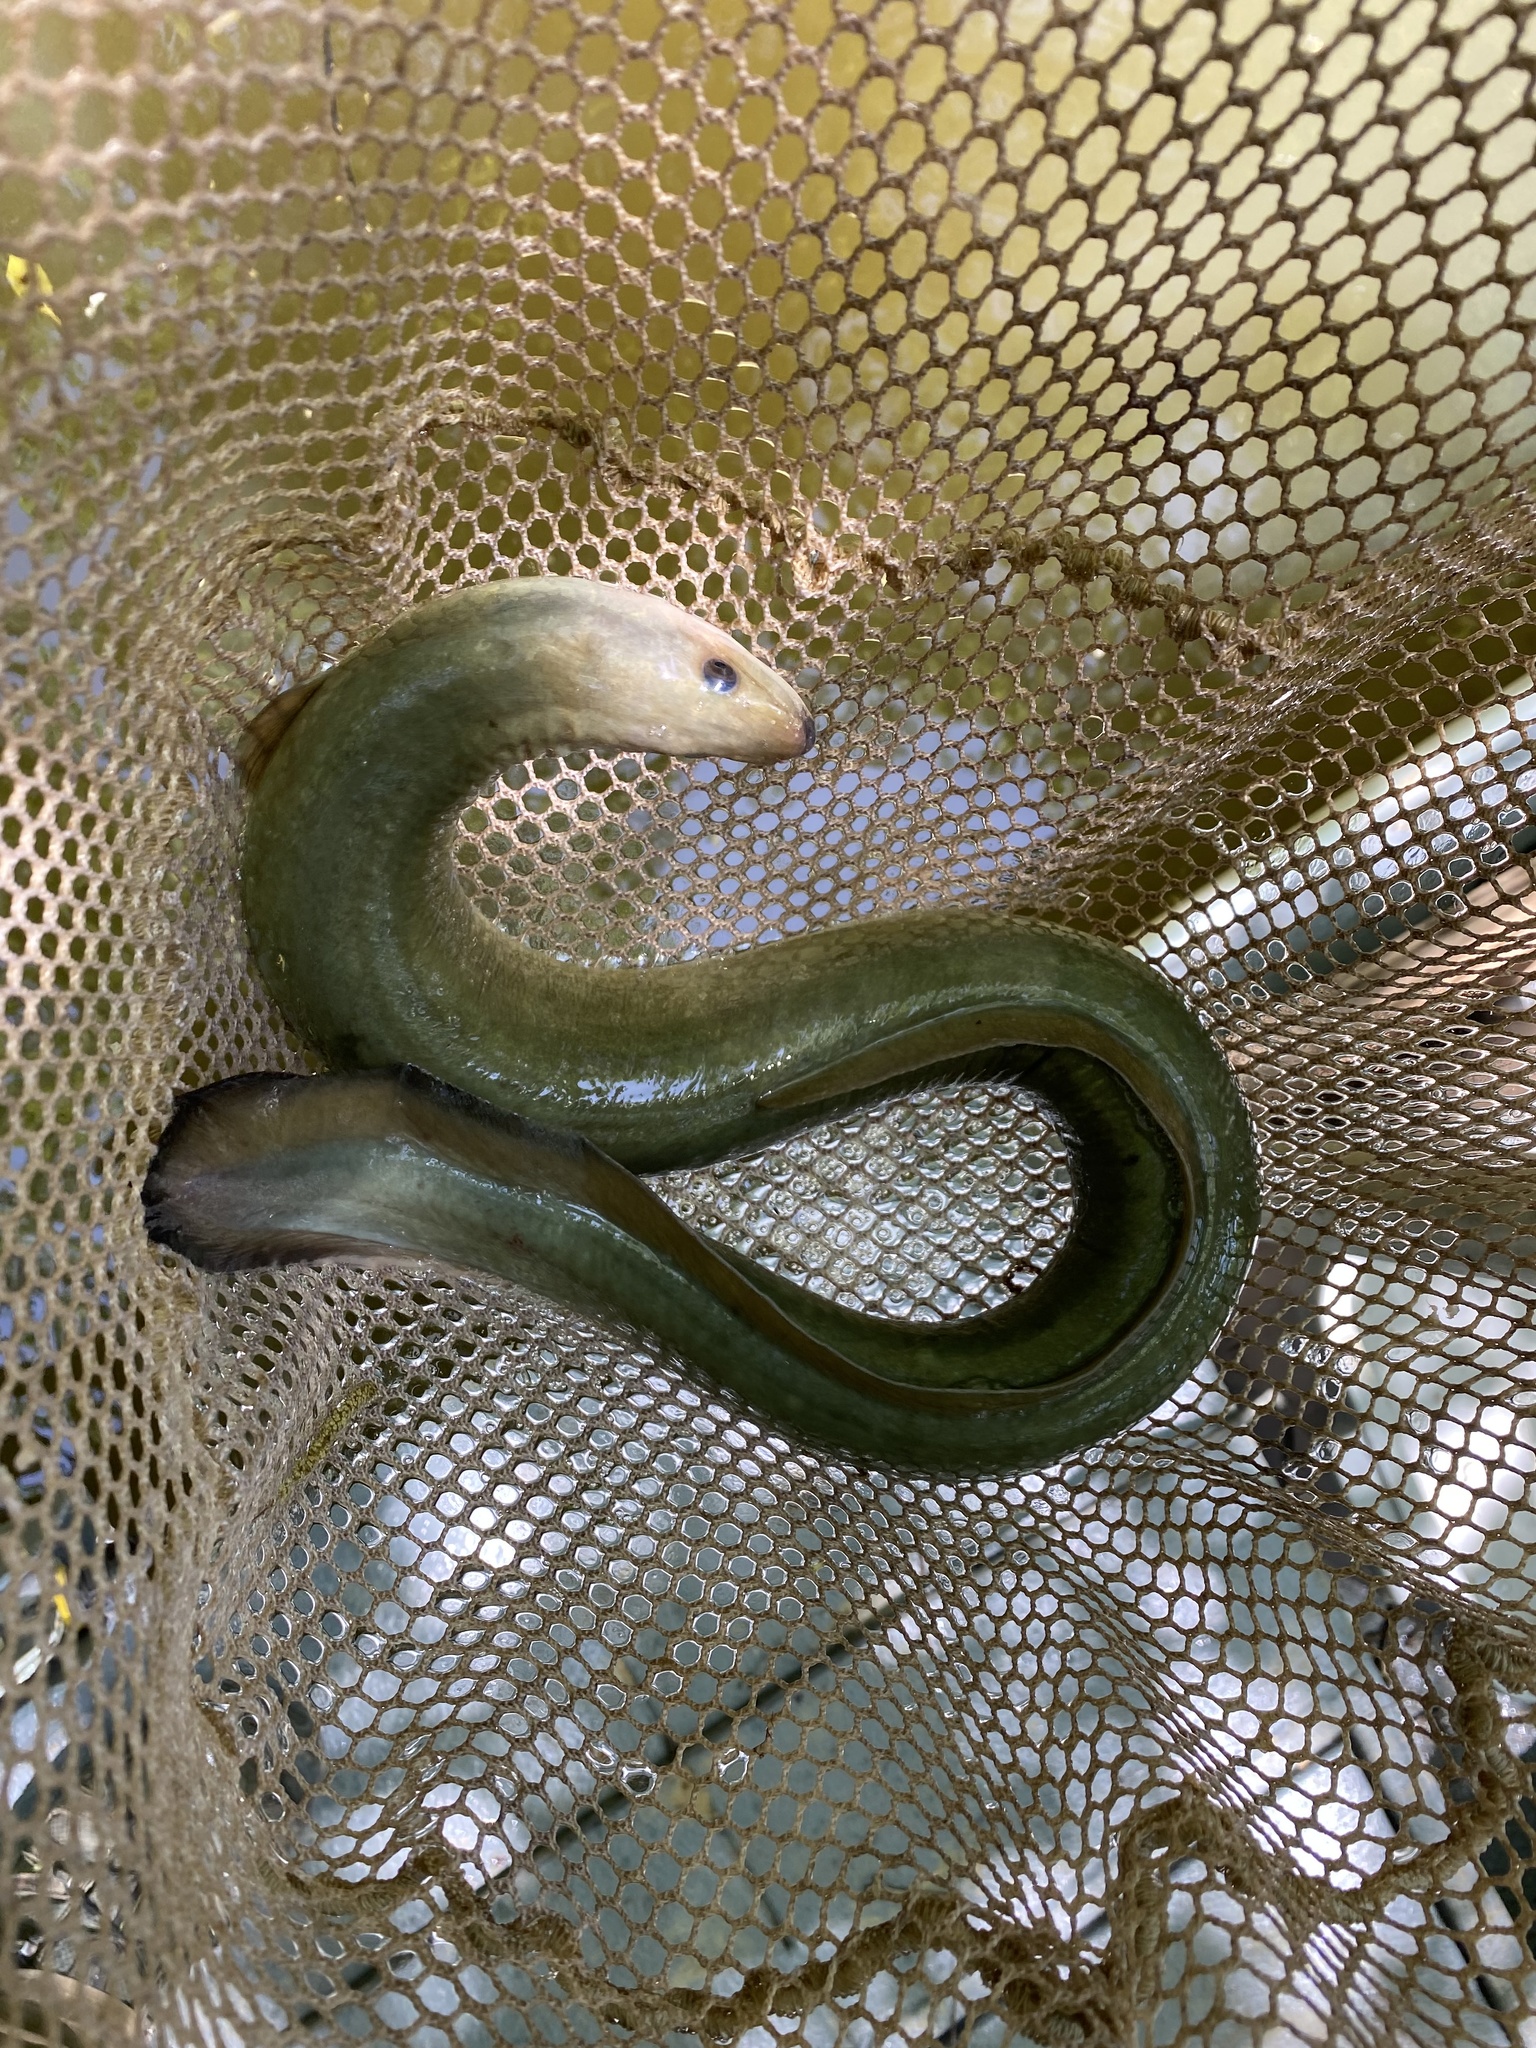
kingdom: Animalia
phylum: Chordata
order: Anguilliformes
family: Anguillidae
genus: Anguilla
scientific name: Anguilla rostrata
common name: American eel
